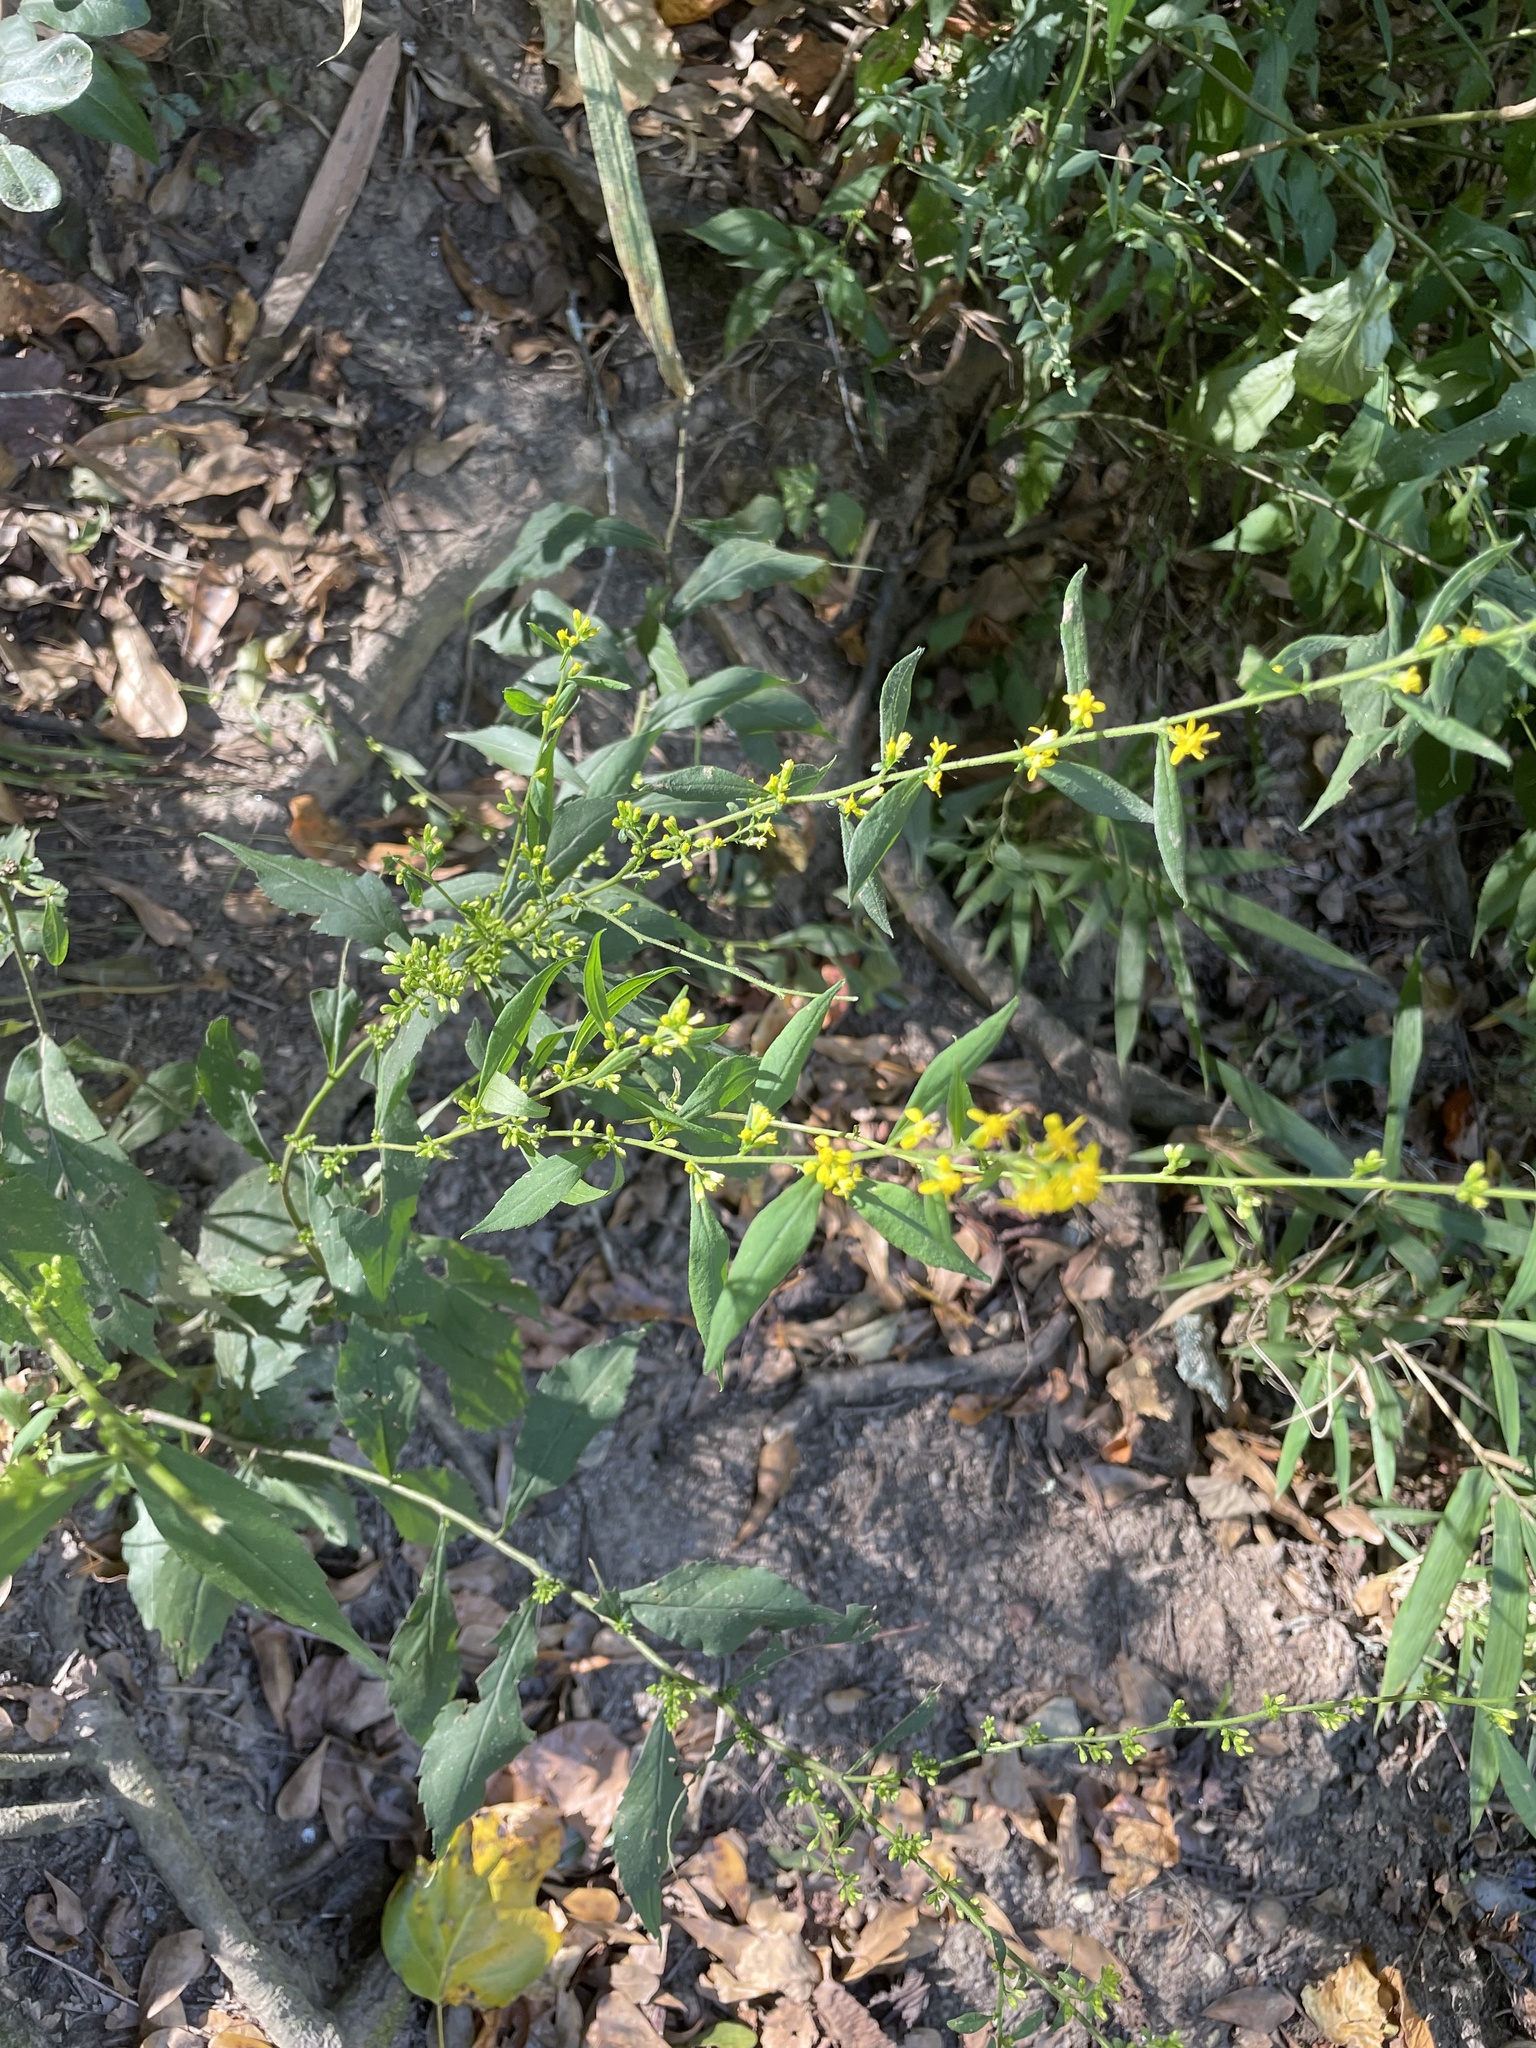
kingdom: Plantae
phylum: Tracheophyta
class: Magnoliopsida
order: Asterales
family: Asteraceae
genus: Solidago
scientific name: Solidago curtisii
